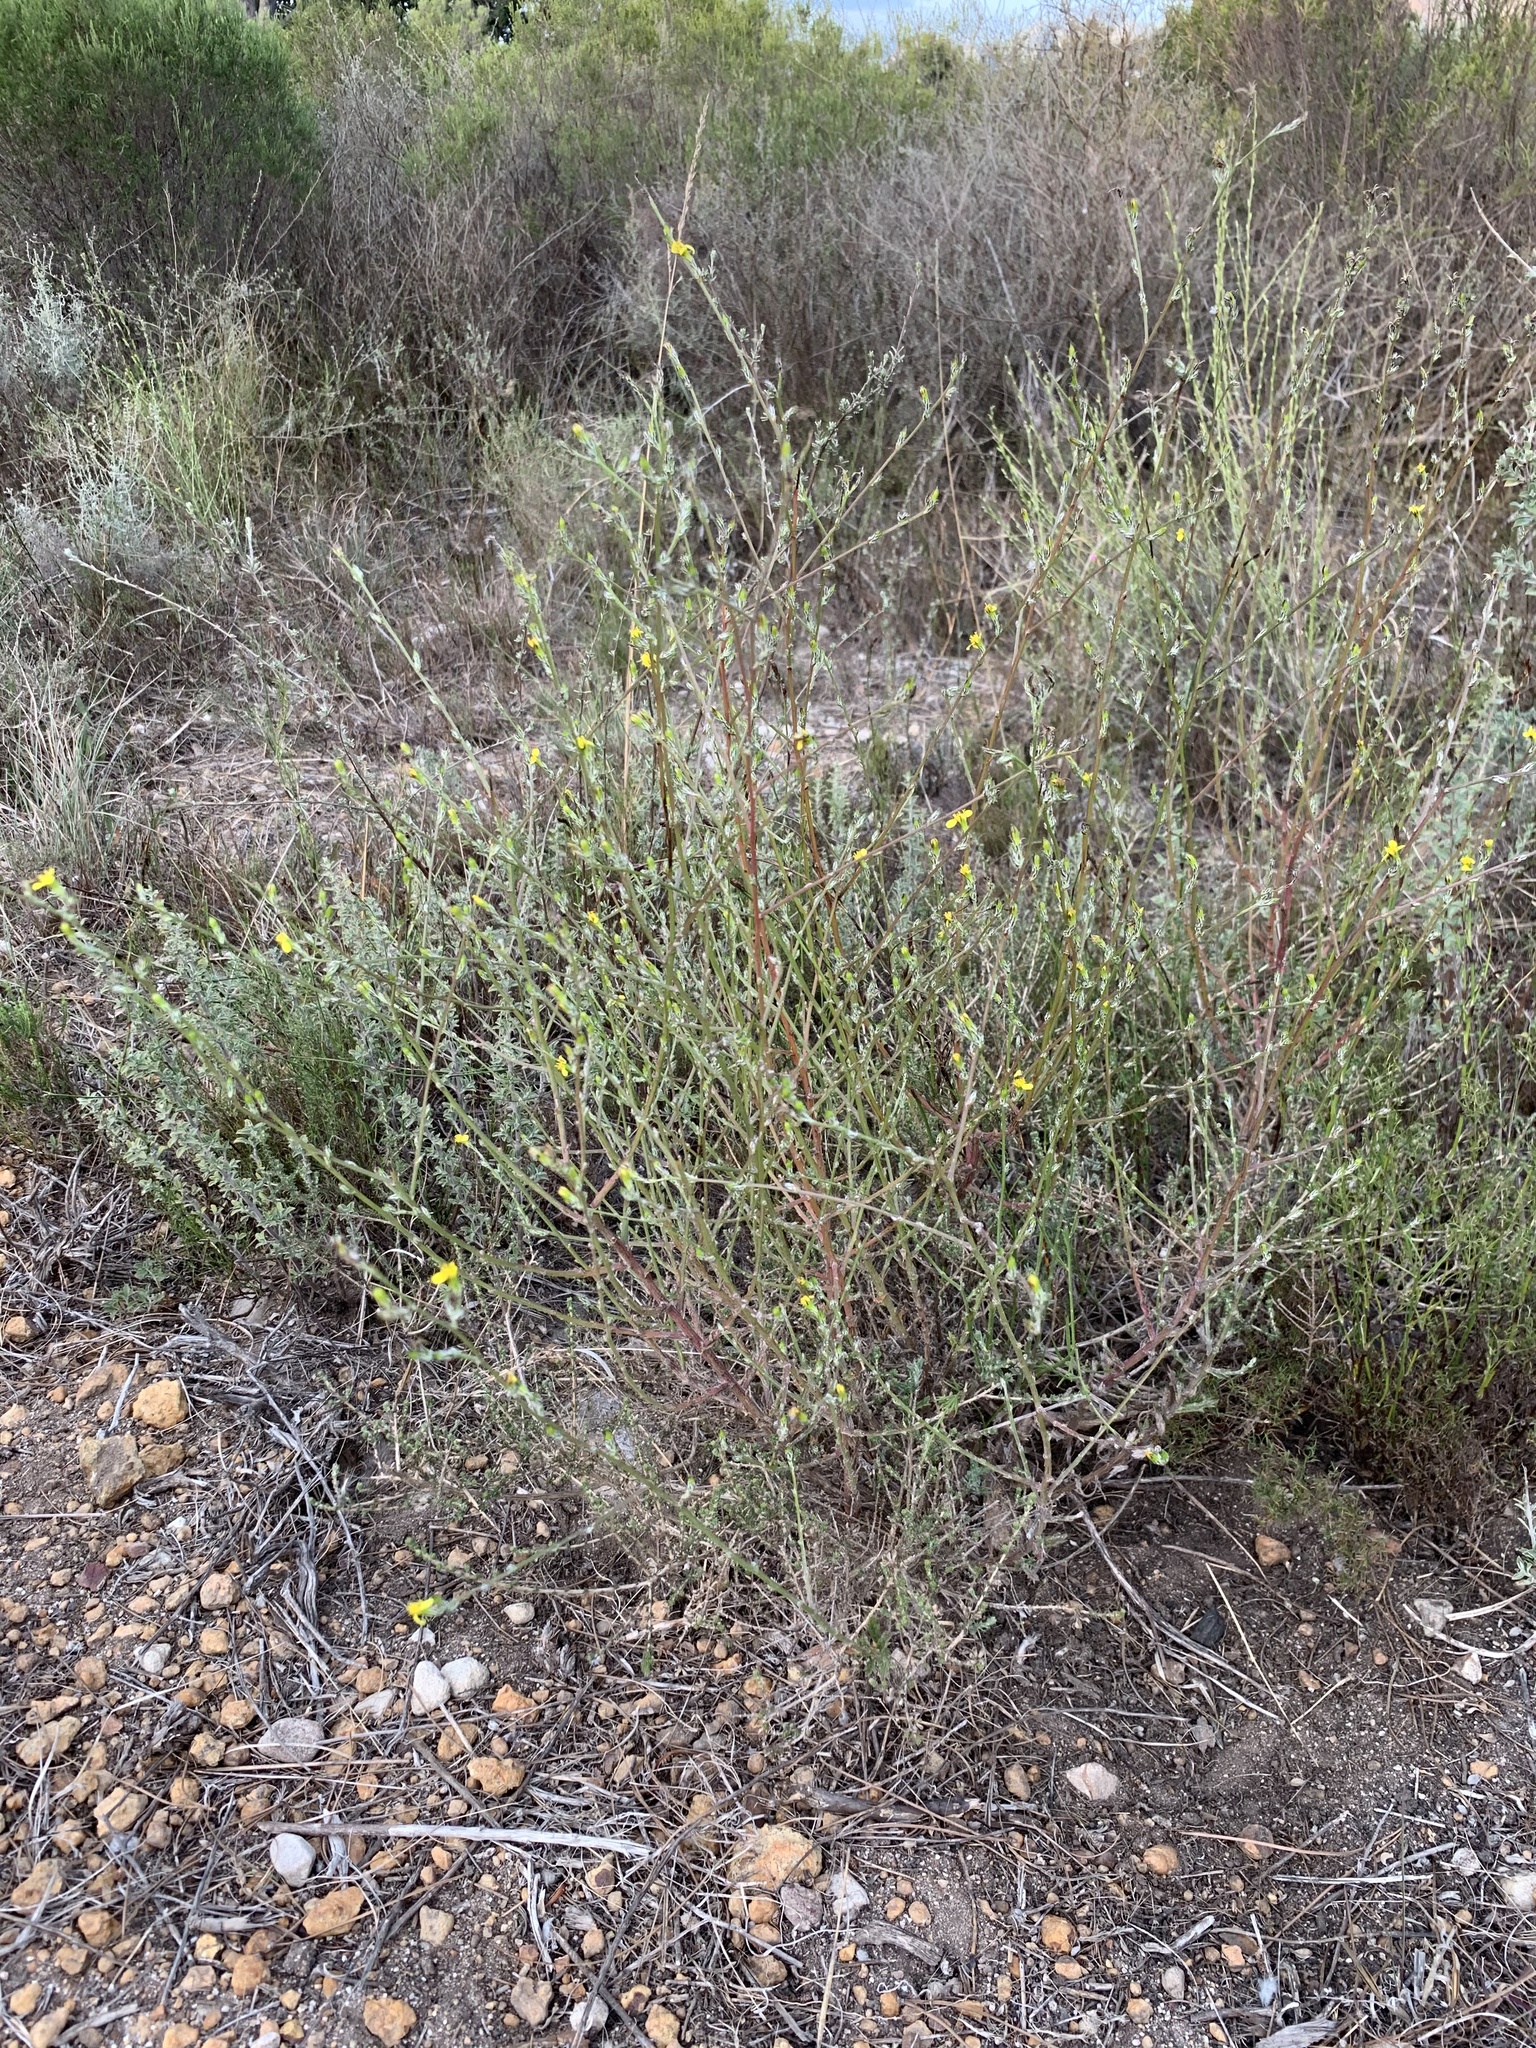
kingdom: Plantae
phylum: Tracheophyta
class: Magnoliopsida
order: Asterales
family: Asteraceae
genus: Senecio
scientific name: Senecio pubigerus
